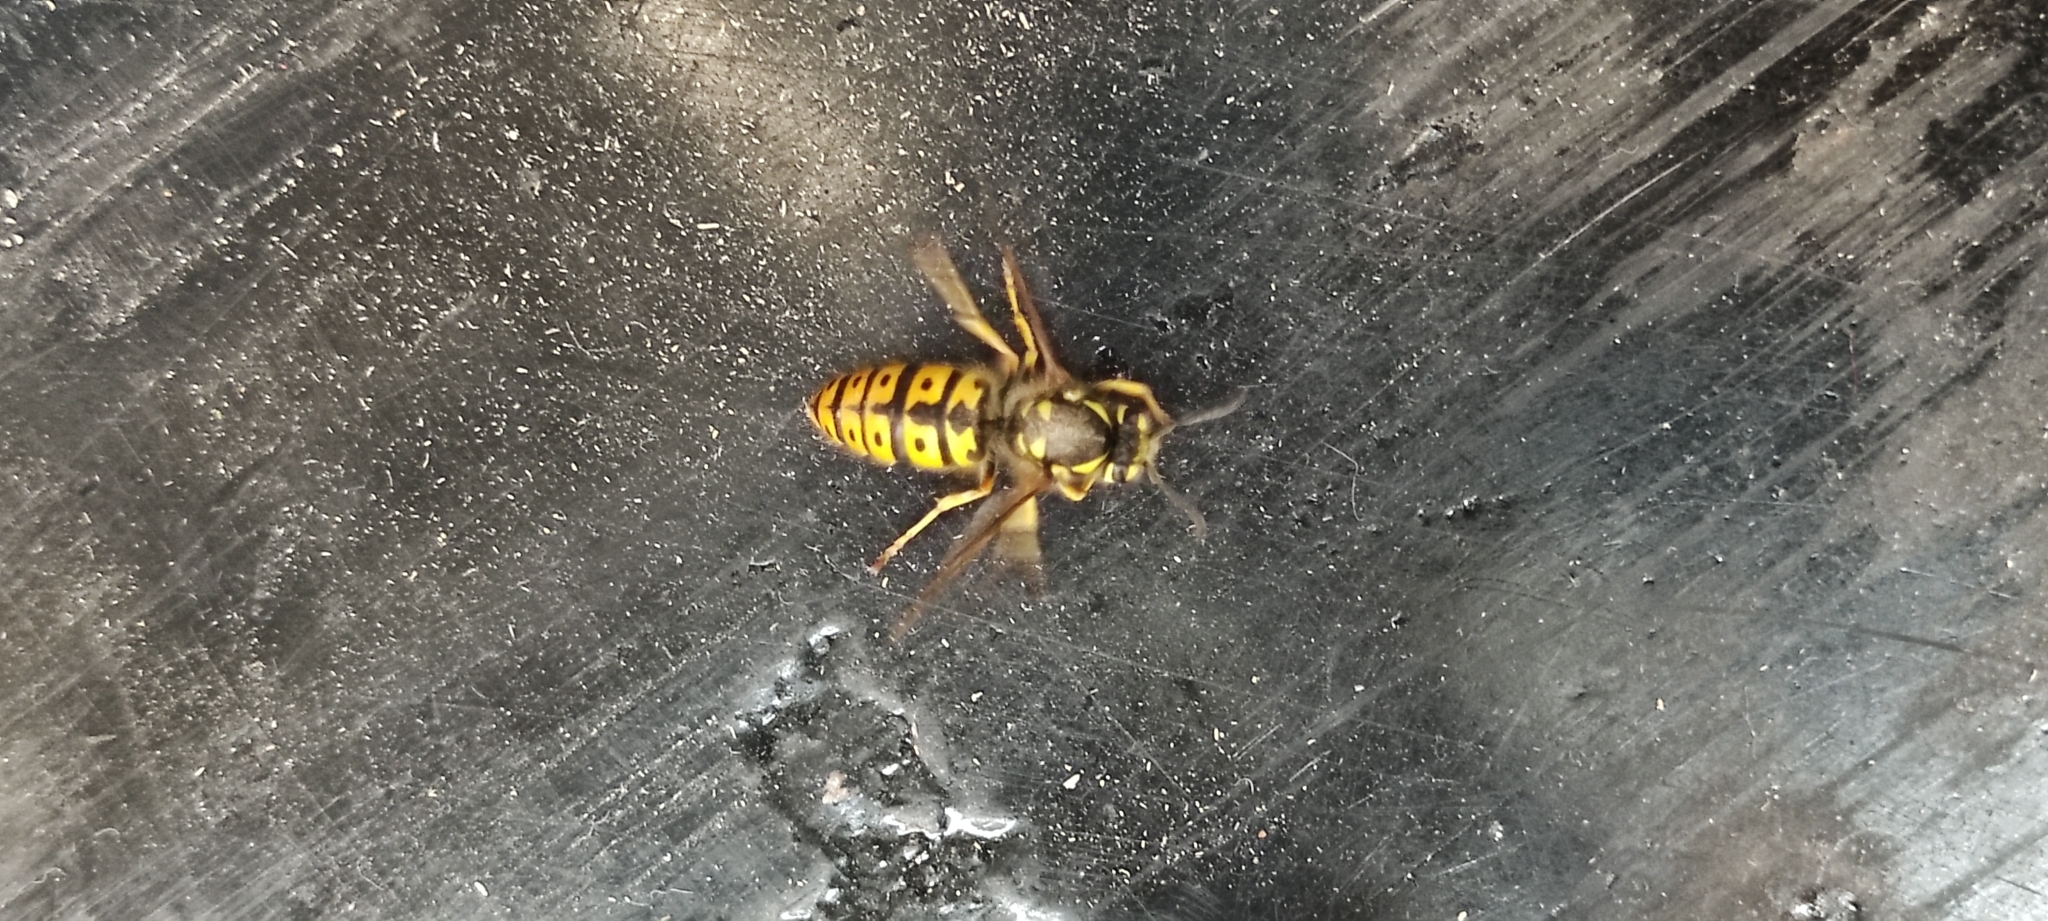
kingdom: Animalia
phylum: Arthropoda
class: Insecta
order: Hymenoptera
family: Vespidae
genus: Vespula
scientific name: Vespula germanica
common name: German wasp
